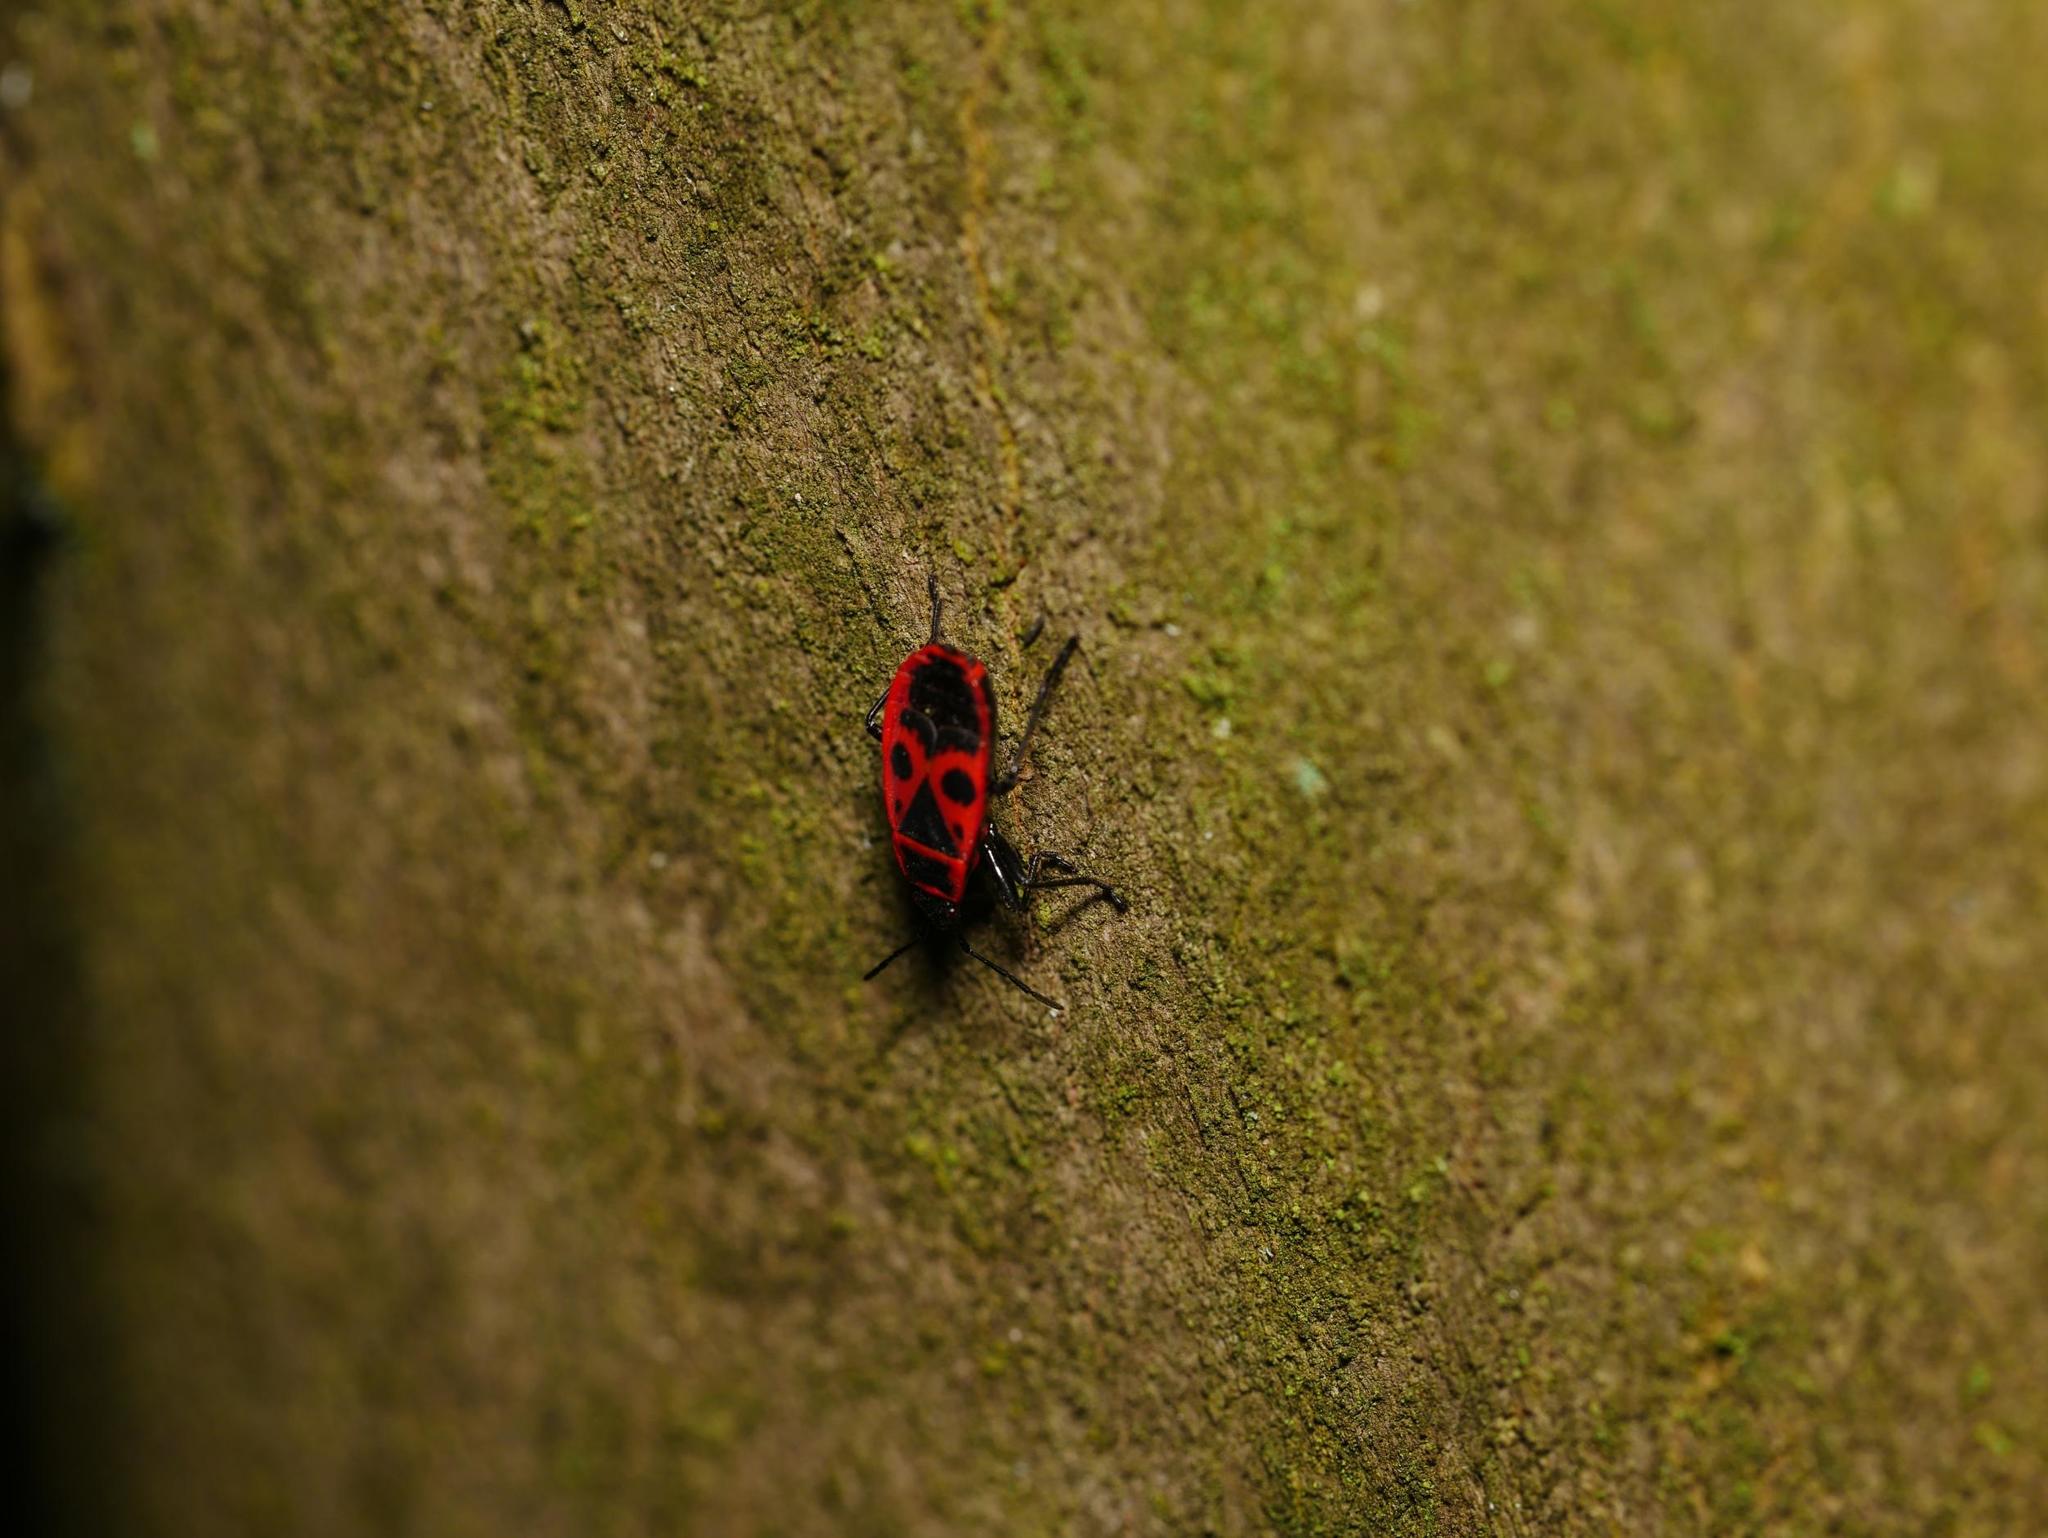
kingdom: Animalia
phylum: Arthropoda
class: Insecta
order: Hemiptera
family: Pyrrhocoridae
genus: Pyrrhocoris
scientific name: Pyrrhocoris apterus
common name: Firebug
